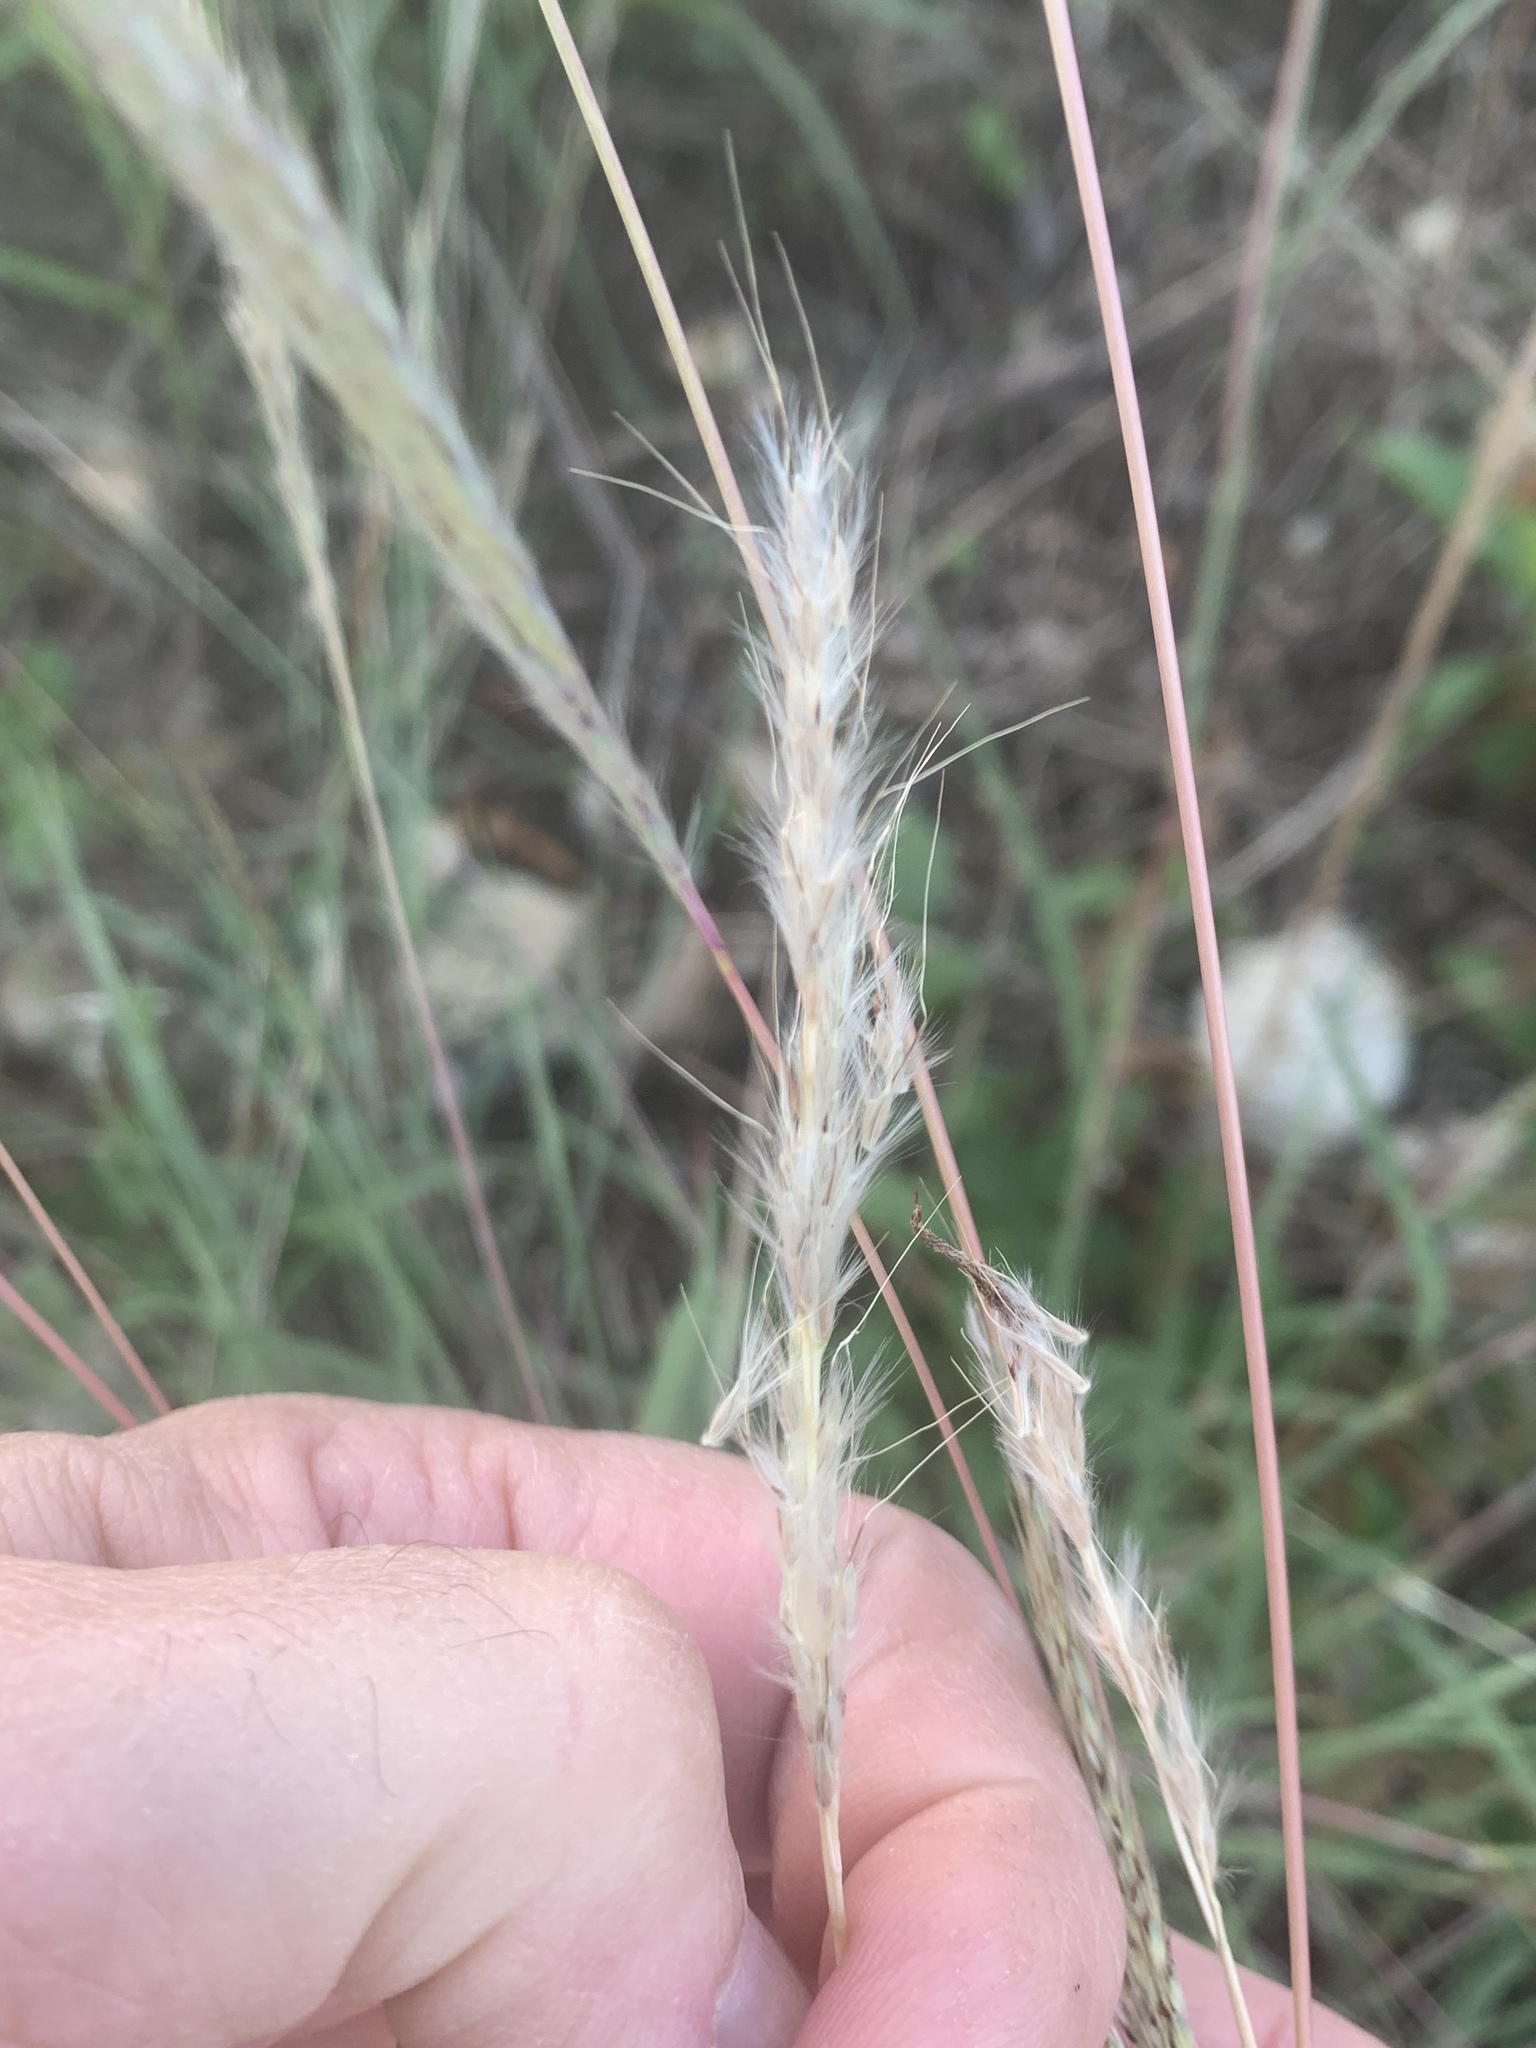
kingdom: Plantae
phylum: Tracheophyta
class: Liliopsida
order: Poales
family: Poaceae
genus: Bothriochloa
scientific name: Bothriochloa torreyana
